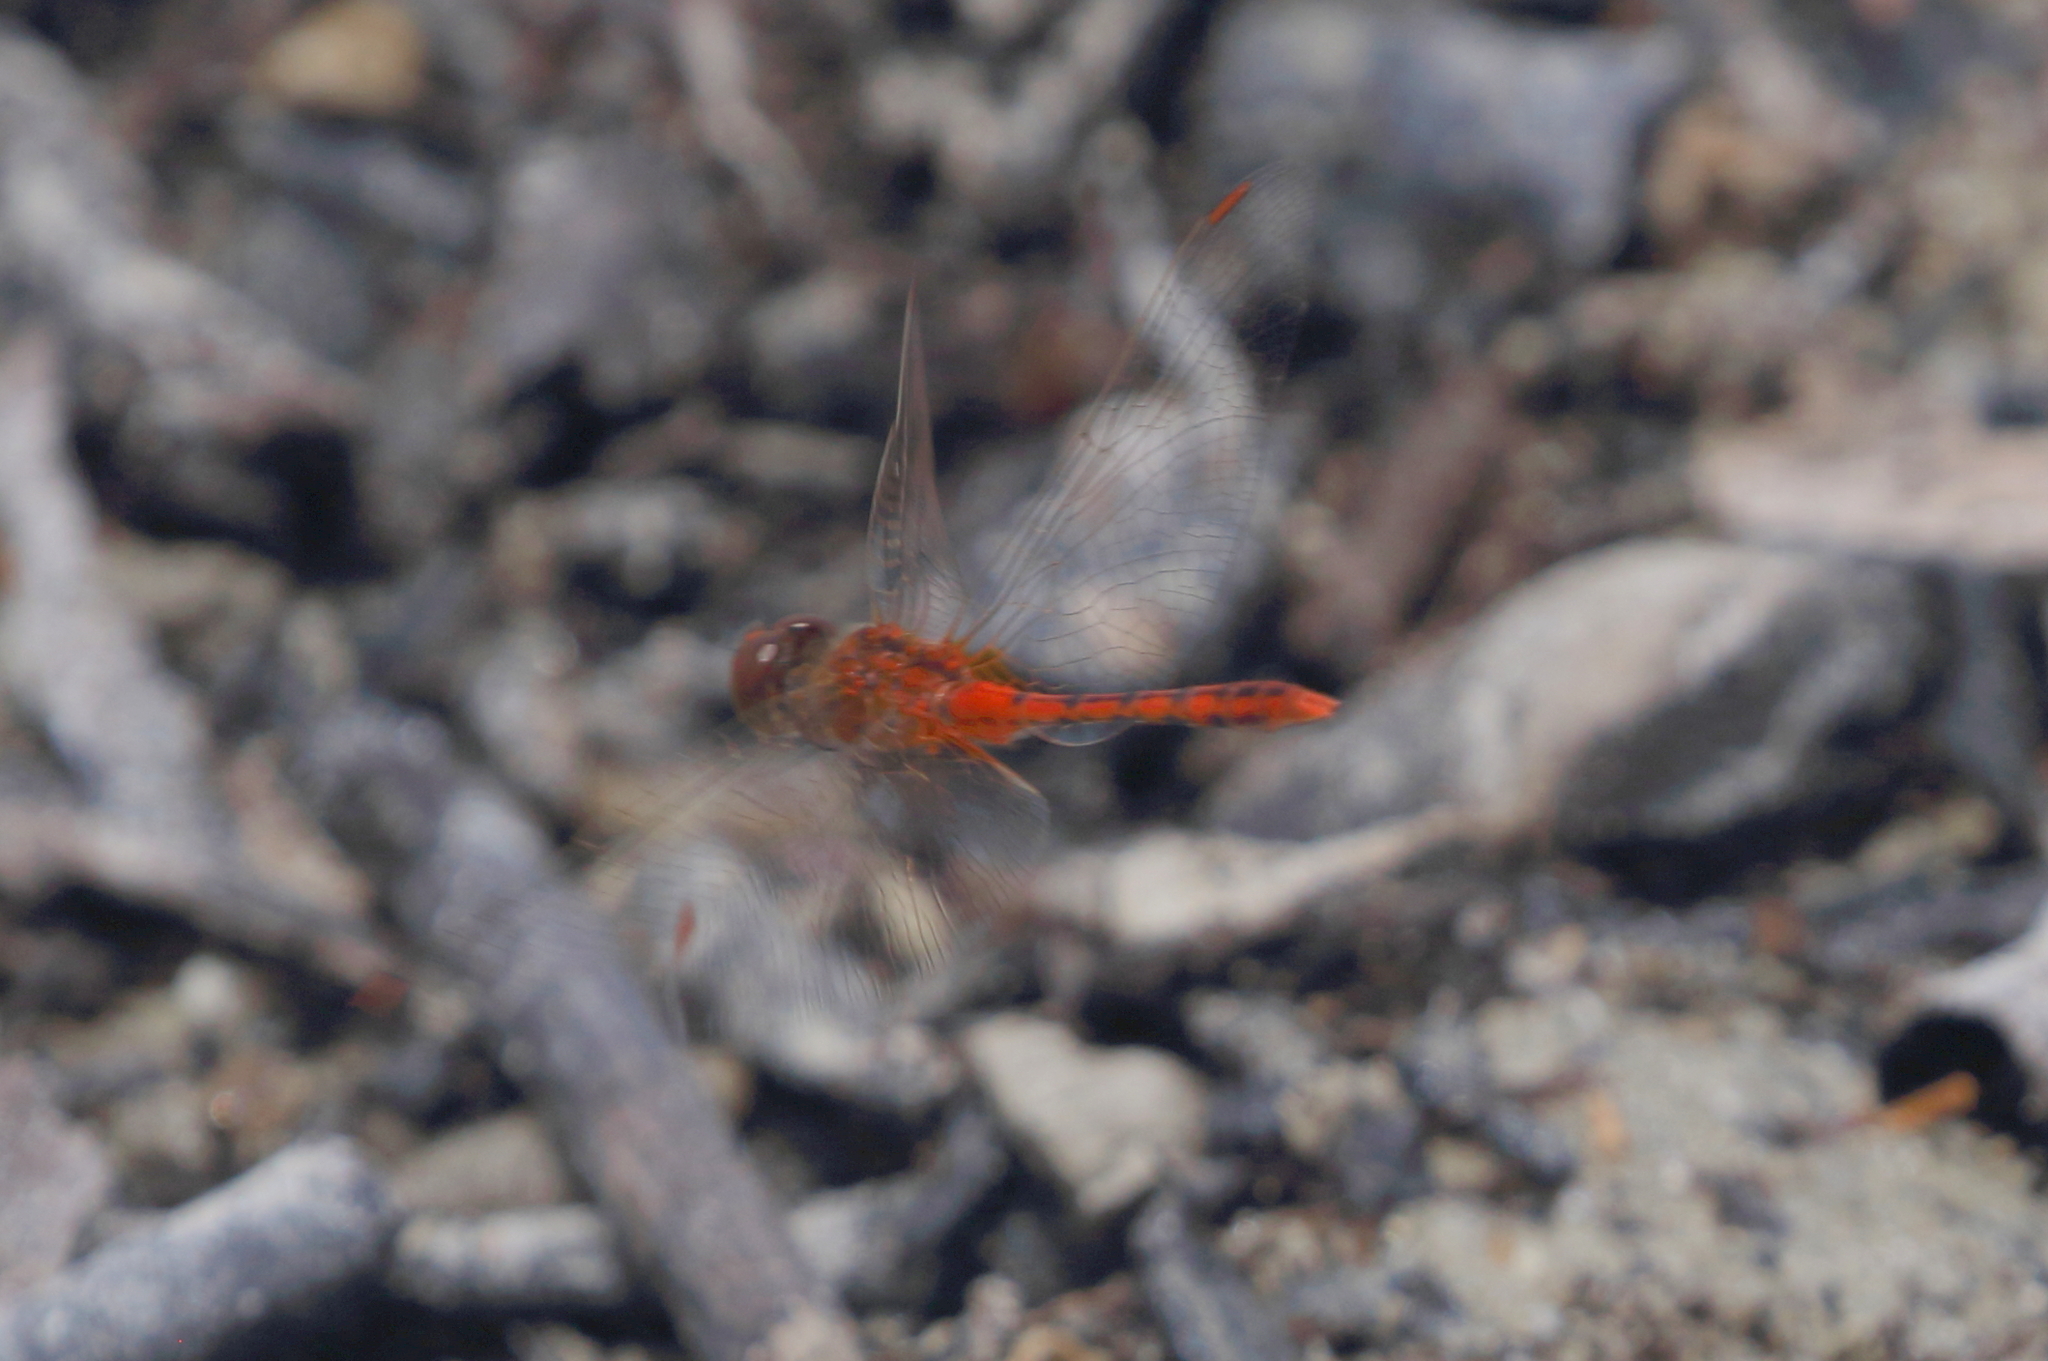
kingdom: Animalia
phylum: Arthropoda
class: Insecta
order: Odonata
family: Libellulidae
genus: Diplacodes
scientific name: Diplacodes bipunctata
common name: Red percher dragonfly
